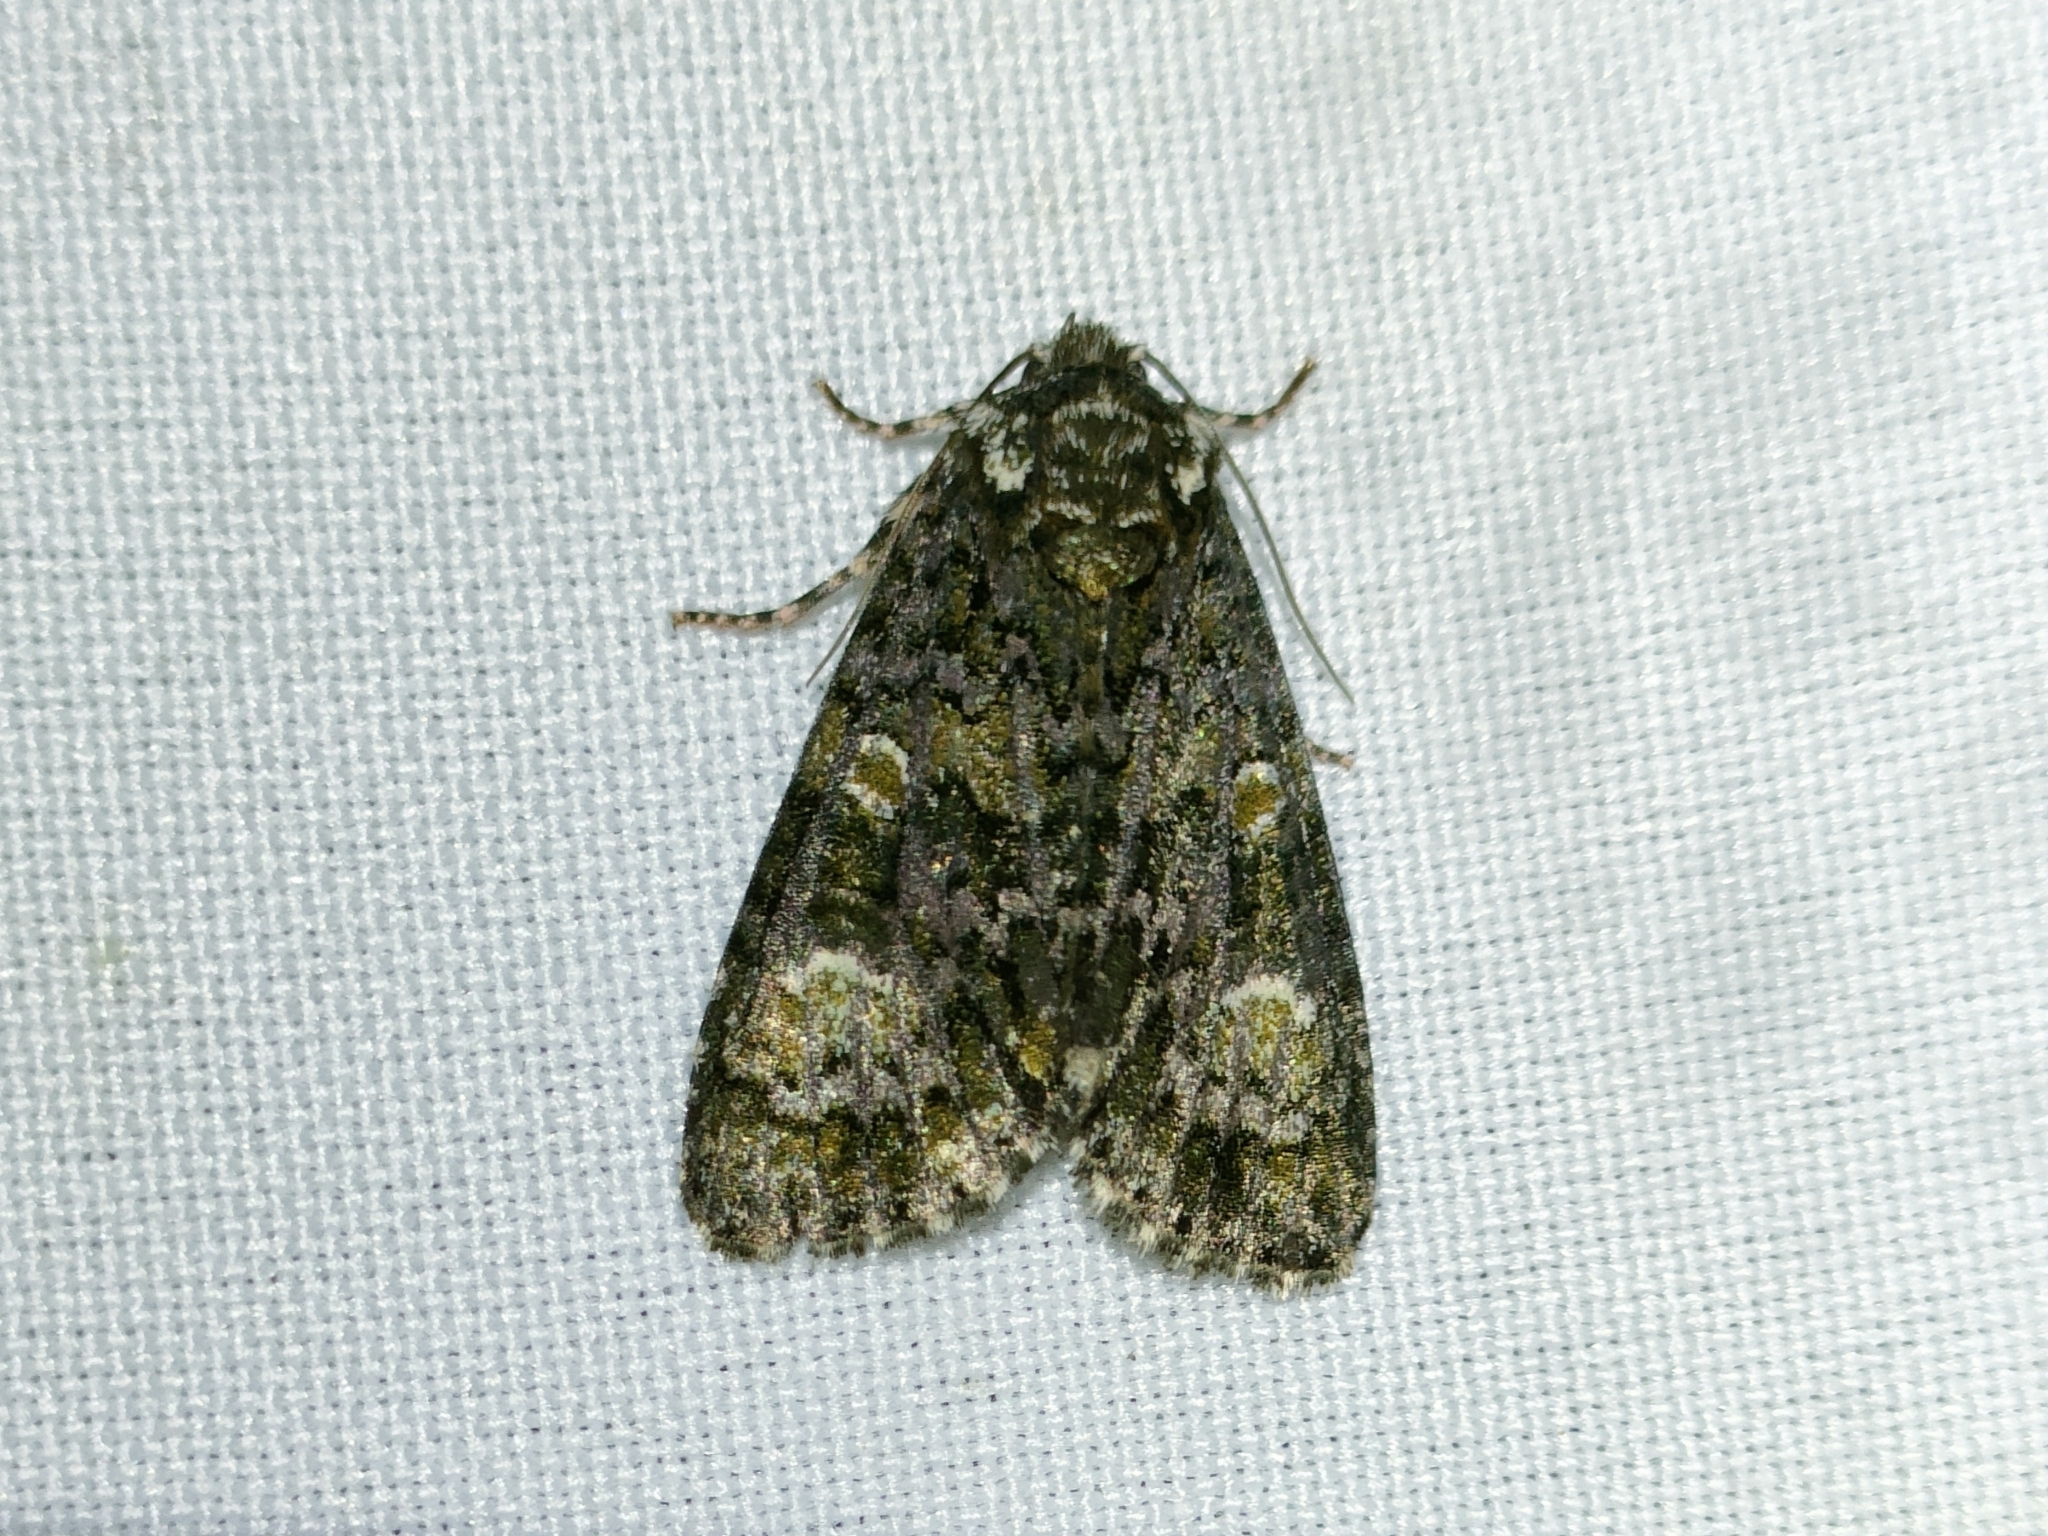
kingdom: Animalia
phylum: Arthropoda
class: Insecta
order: Lepidoptera
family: Noctuidae
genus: Craniophora
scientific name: Craniophora ligustri
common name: Coronet
